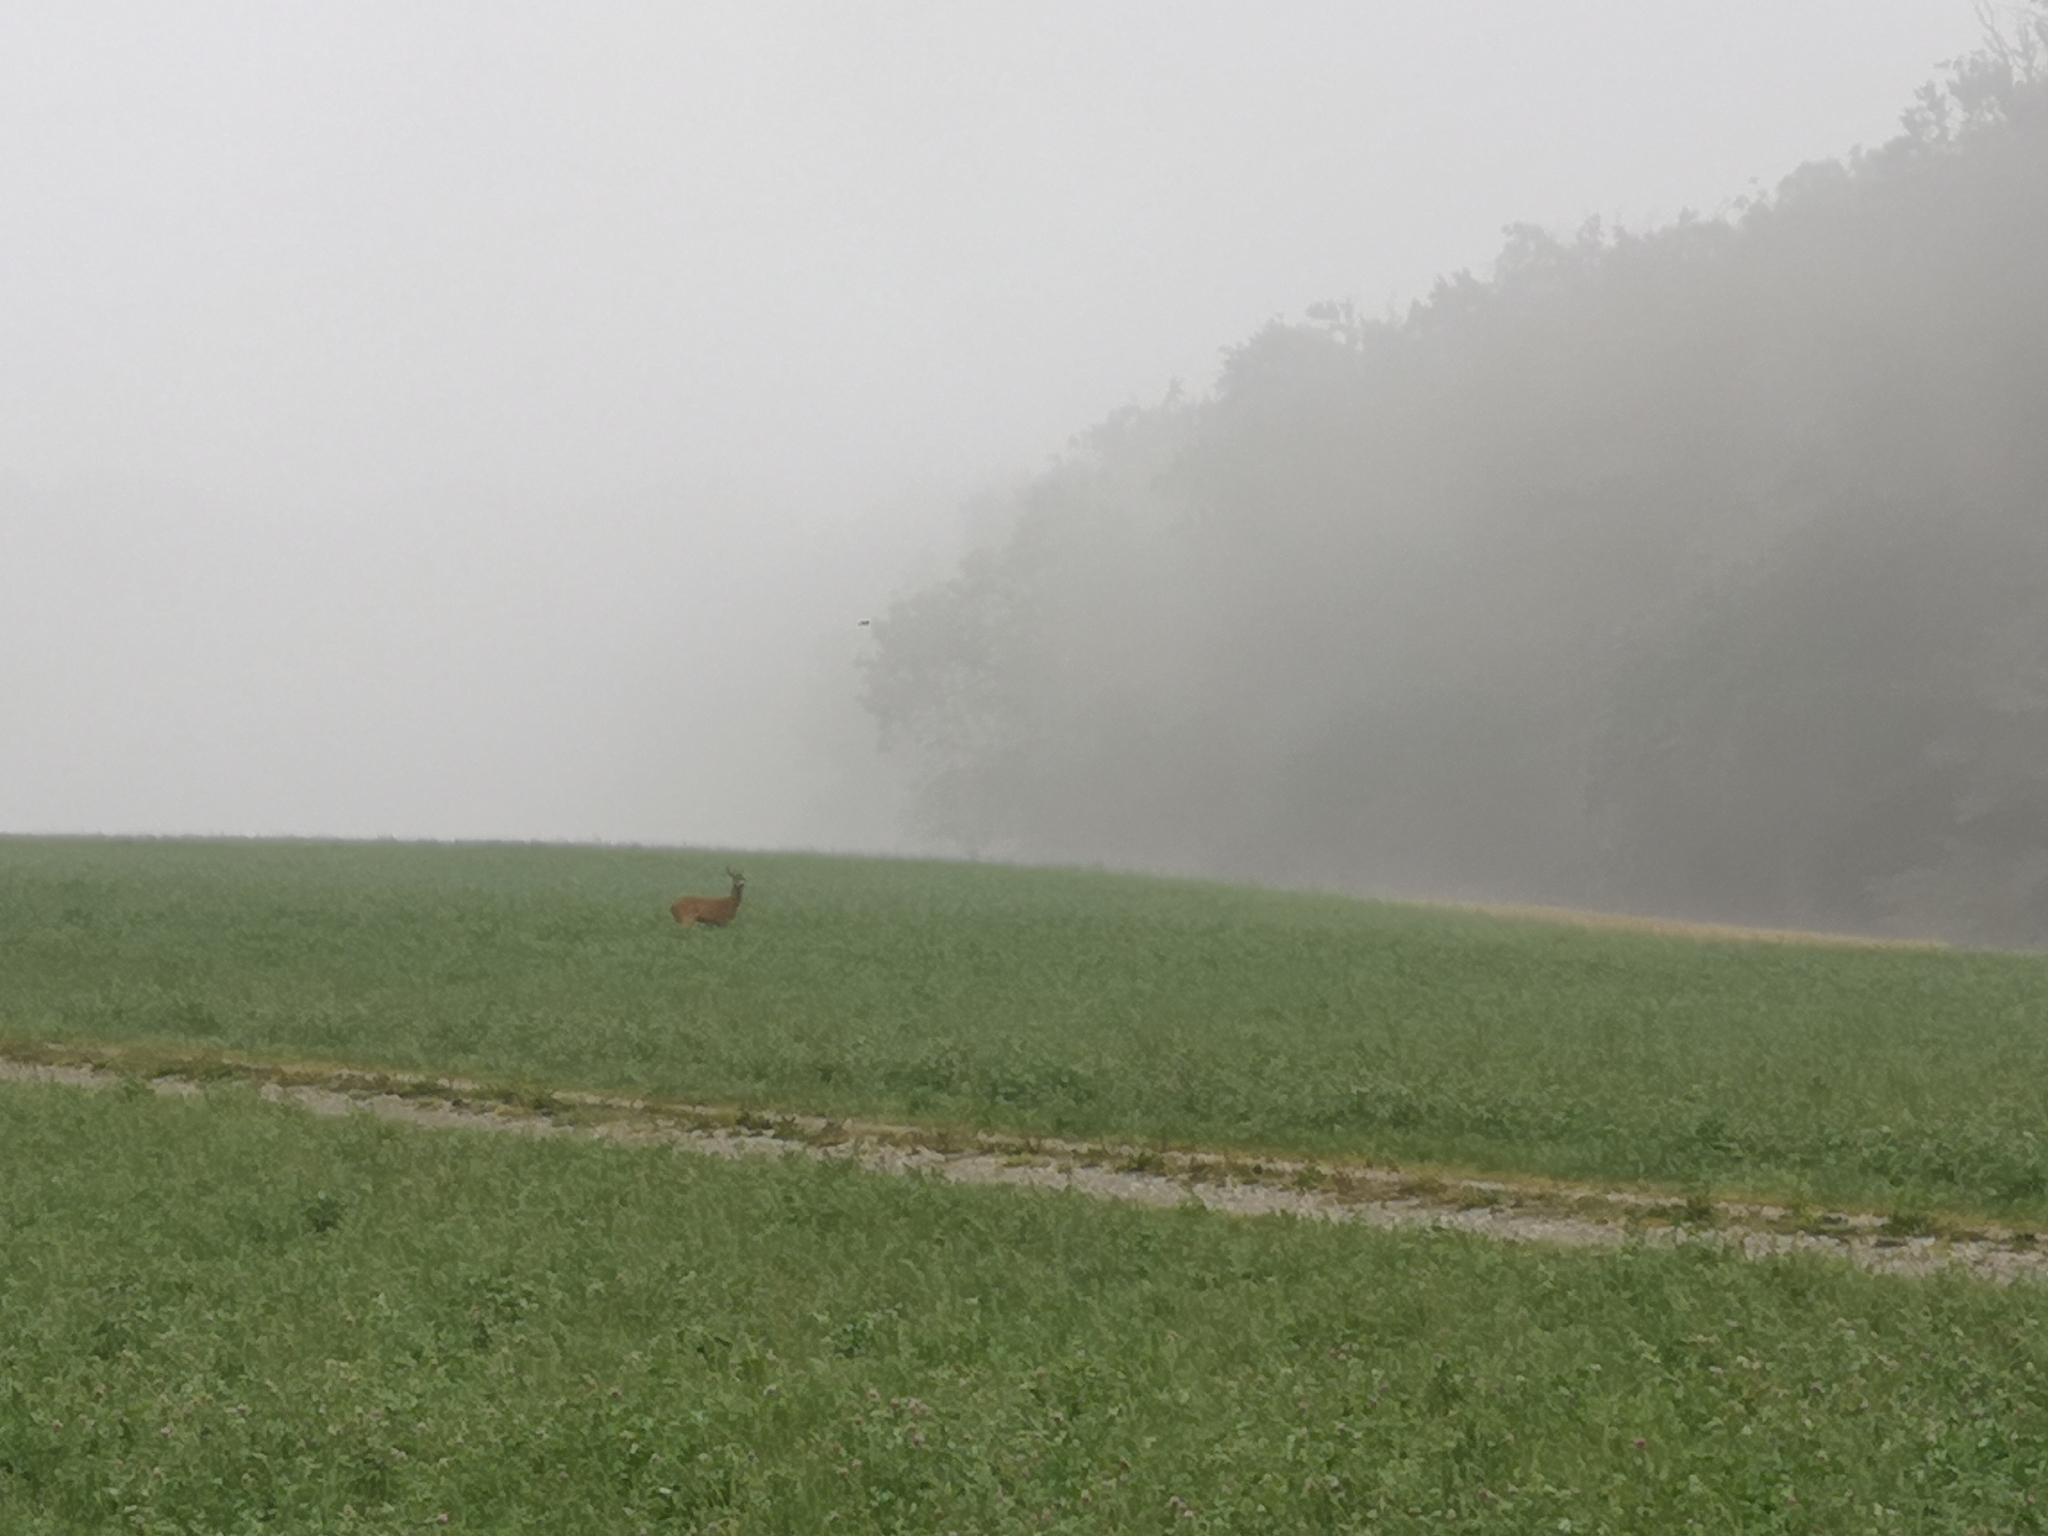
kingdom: Animalia
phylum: Chordata
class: Mammalia
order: Artiodactyla
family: Cervidae
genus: Capreolus
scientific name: Capreolus capreolus
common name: Western roe deer
